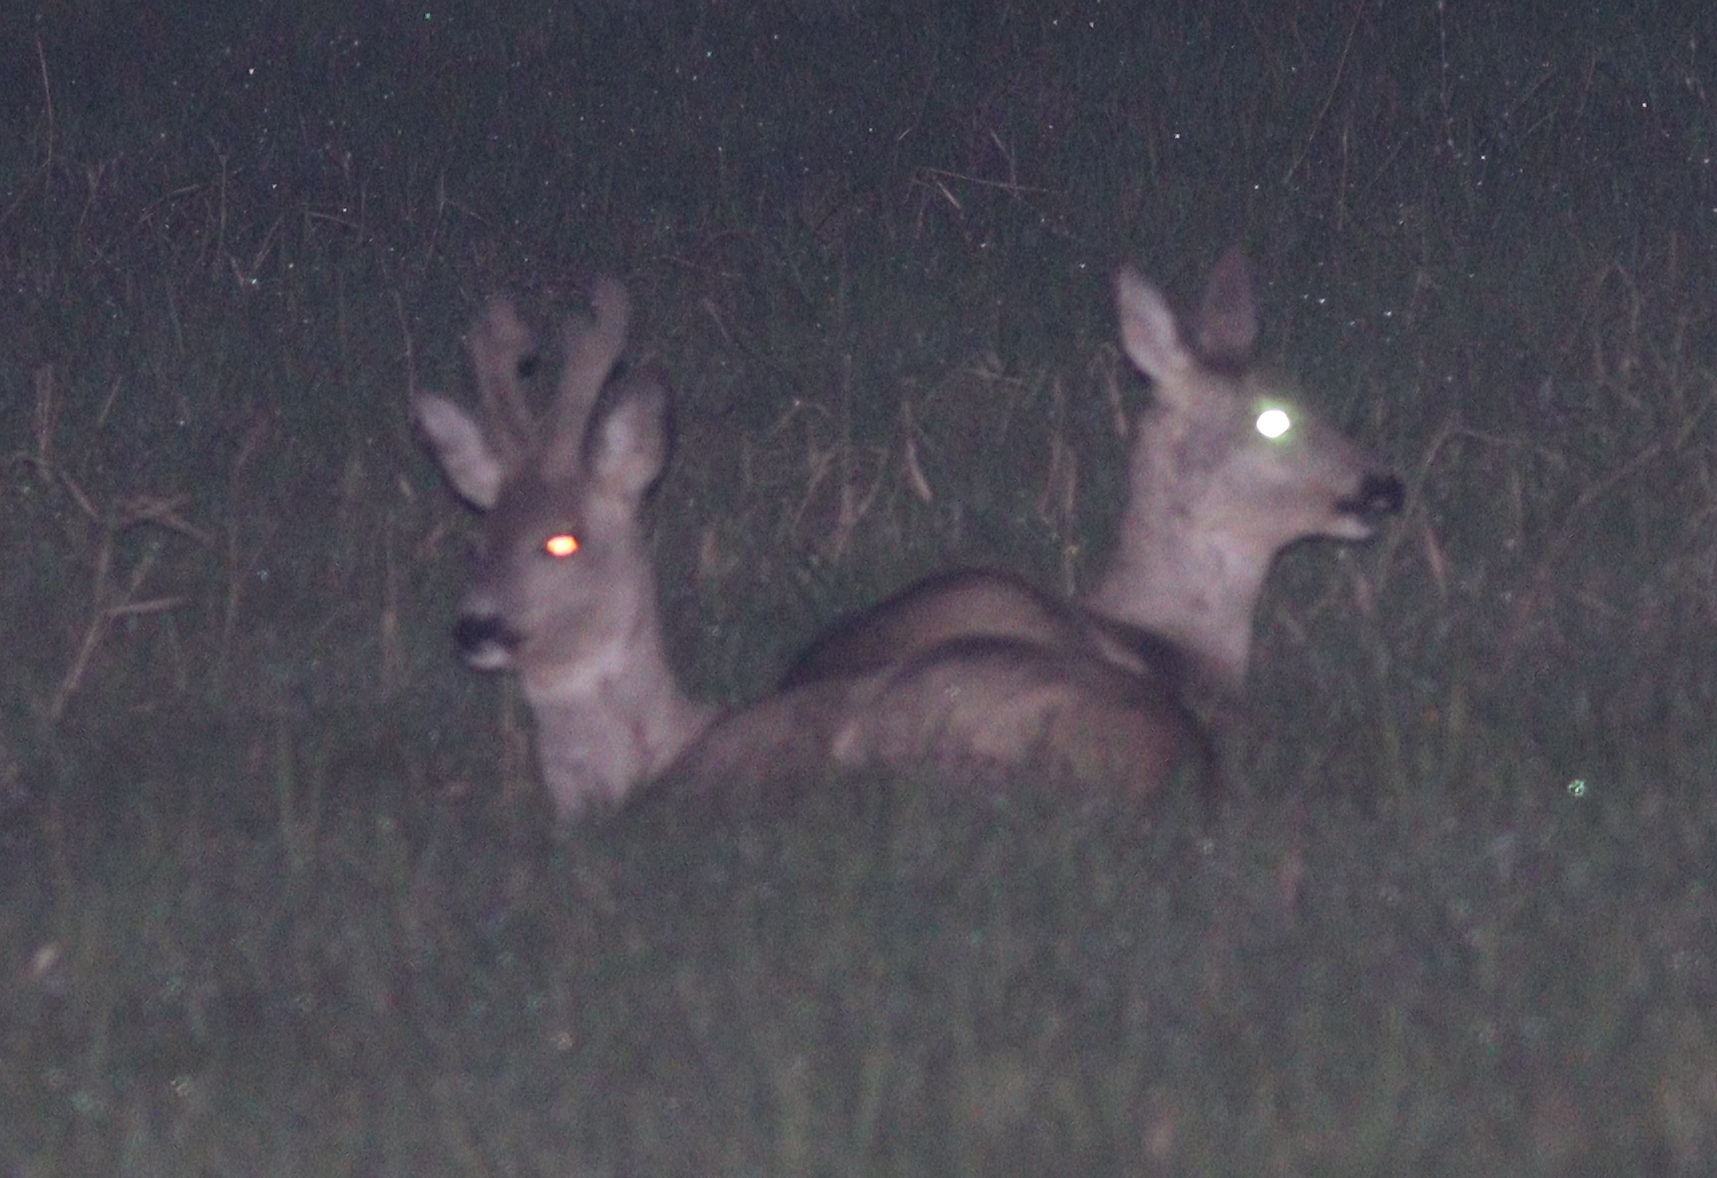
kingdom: Animalia
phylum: Chordata
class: Mammalia
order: Artiodactyla
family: Cervidae
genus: Capreolus
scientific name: Capreolus capreolus
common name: Western roe deer
